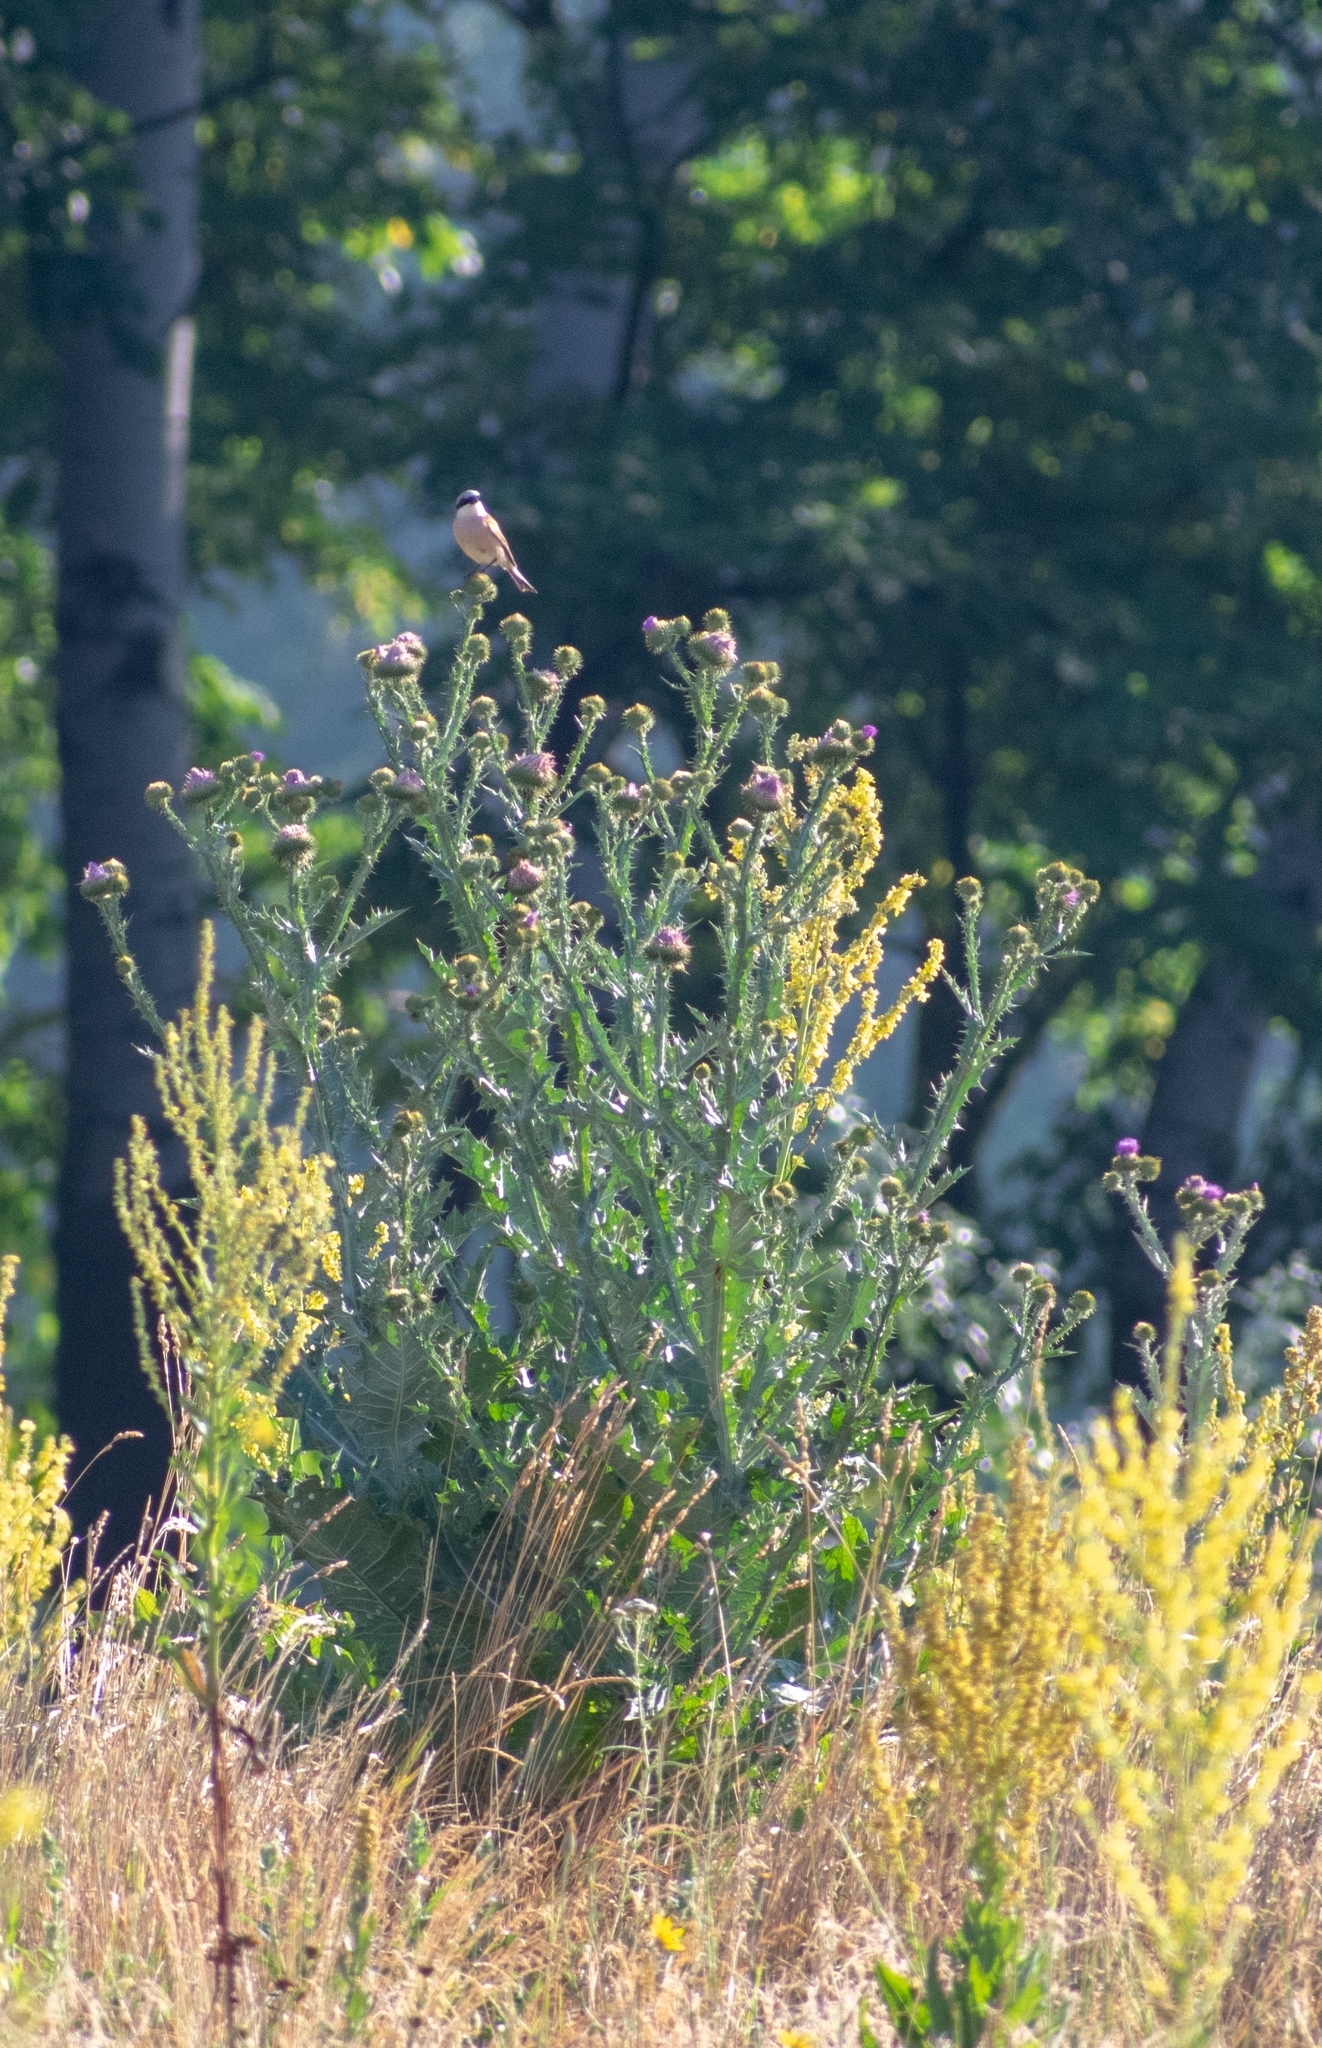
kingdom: Animalia
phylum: Chordata
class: Aves
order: Passeriformes
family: Laniidae
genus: Lanius
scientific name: Lanius collurio
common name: Red-backed shrike
